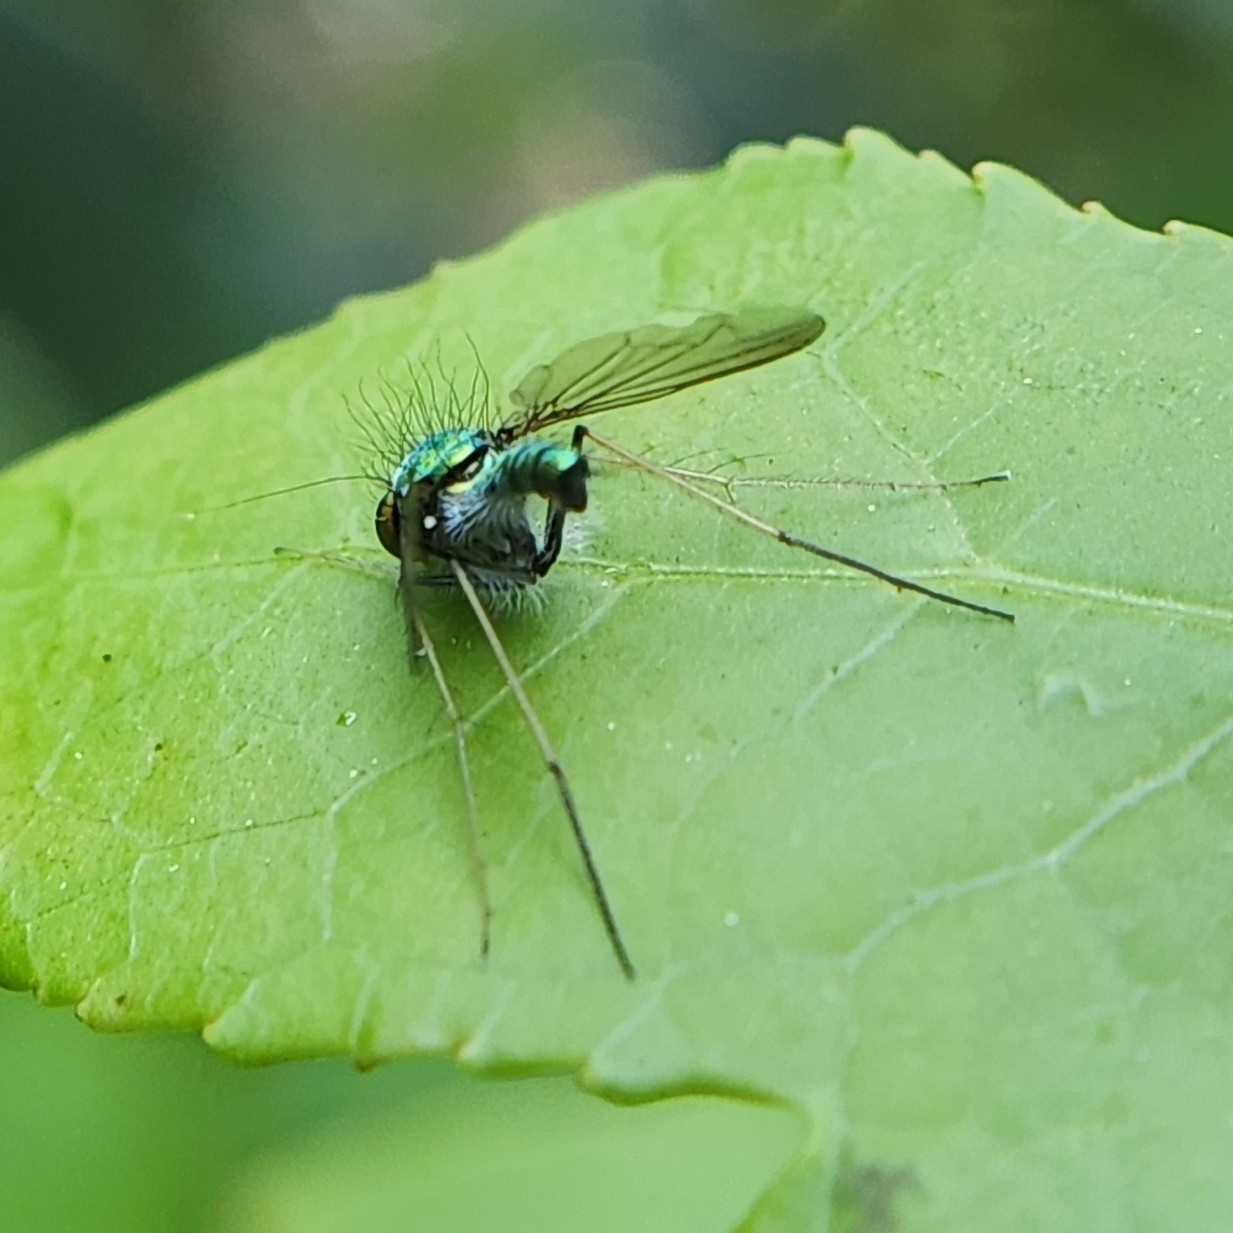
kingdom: Animalia
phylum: Arthropoda
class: Insecta
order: Diptera
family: Dolichopodidae
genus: Condylostylus
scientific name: Condylostylus comatus
